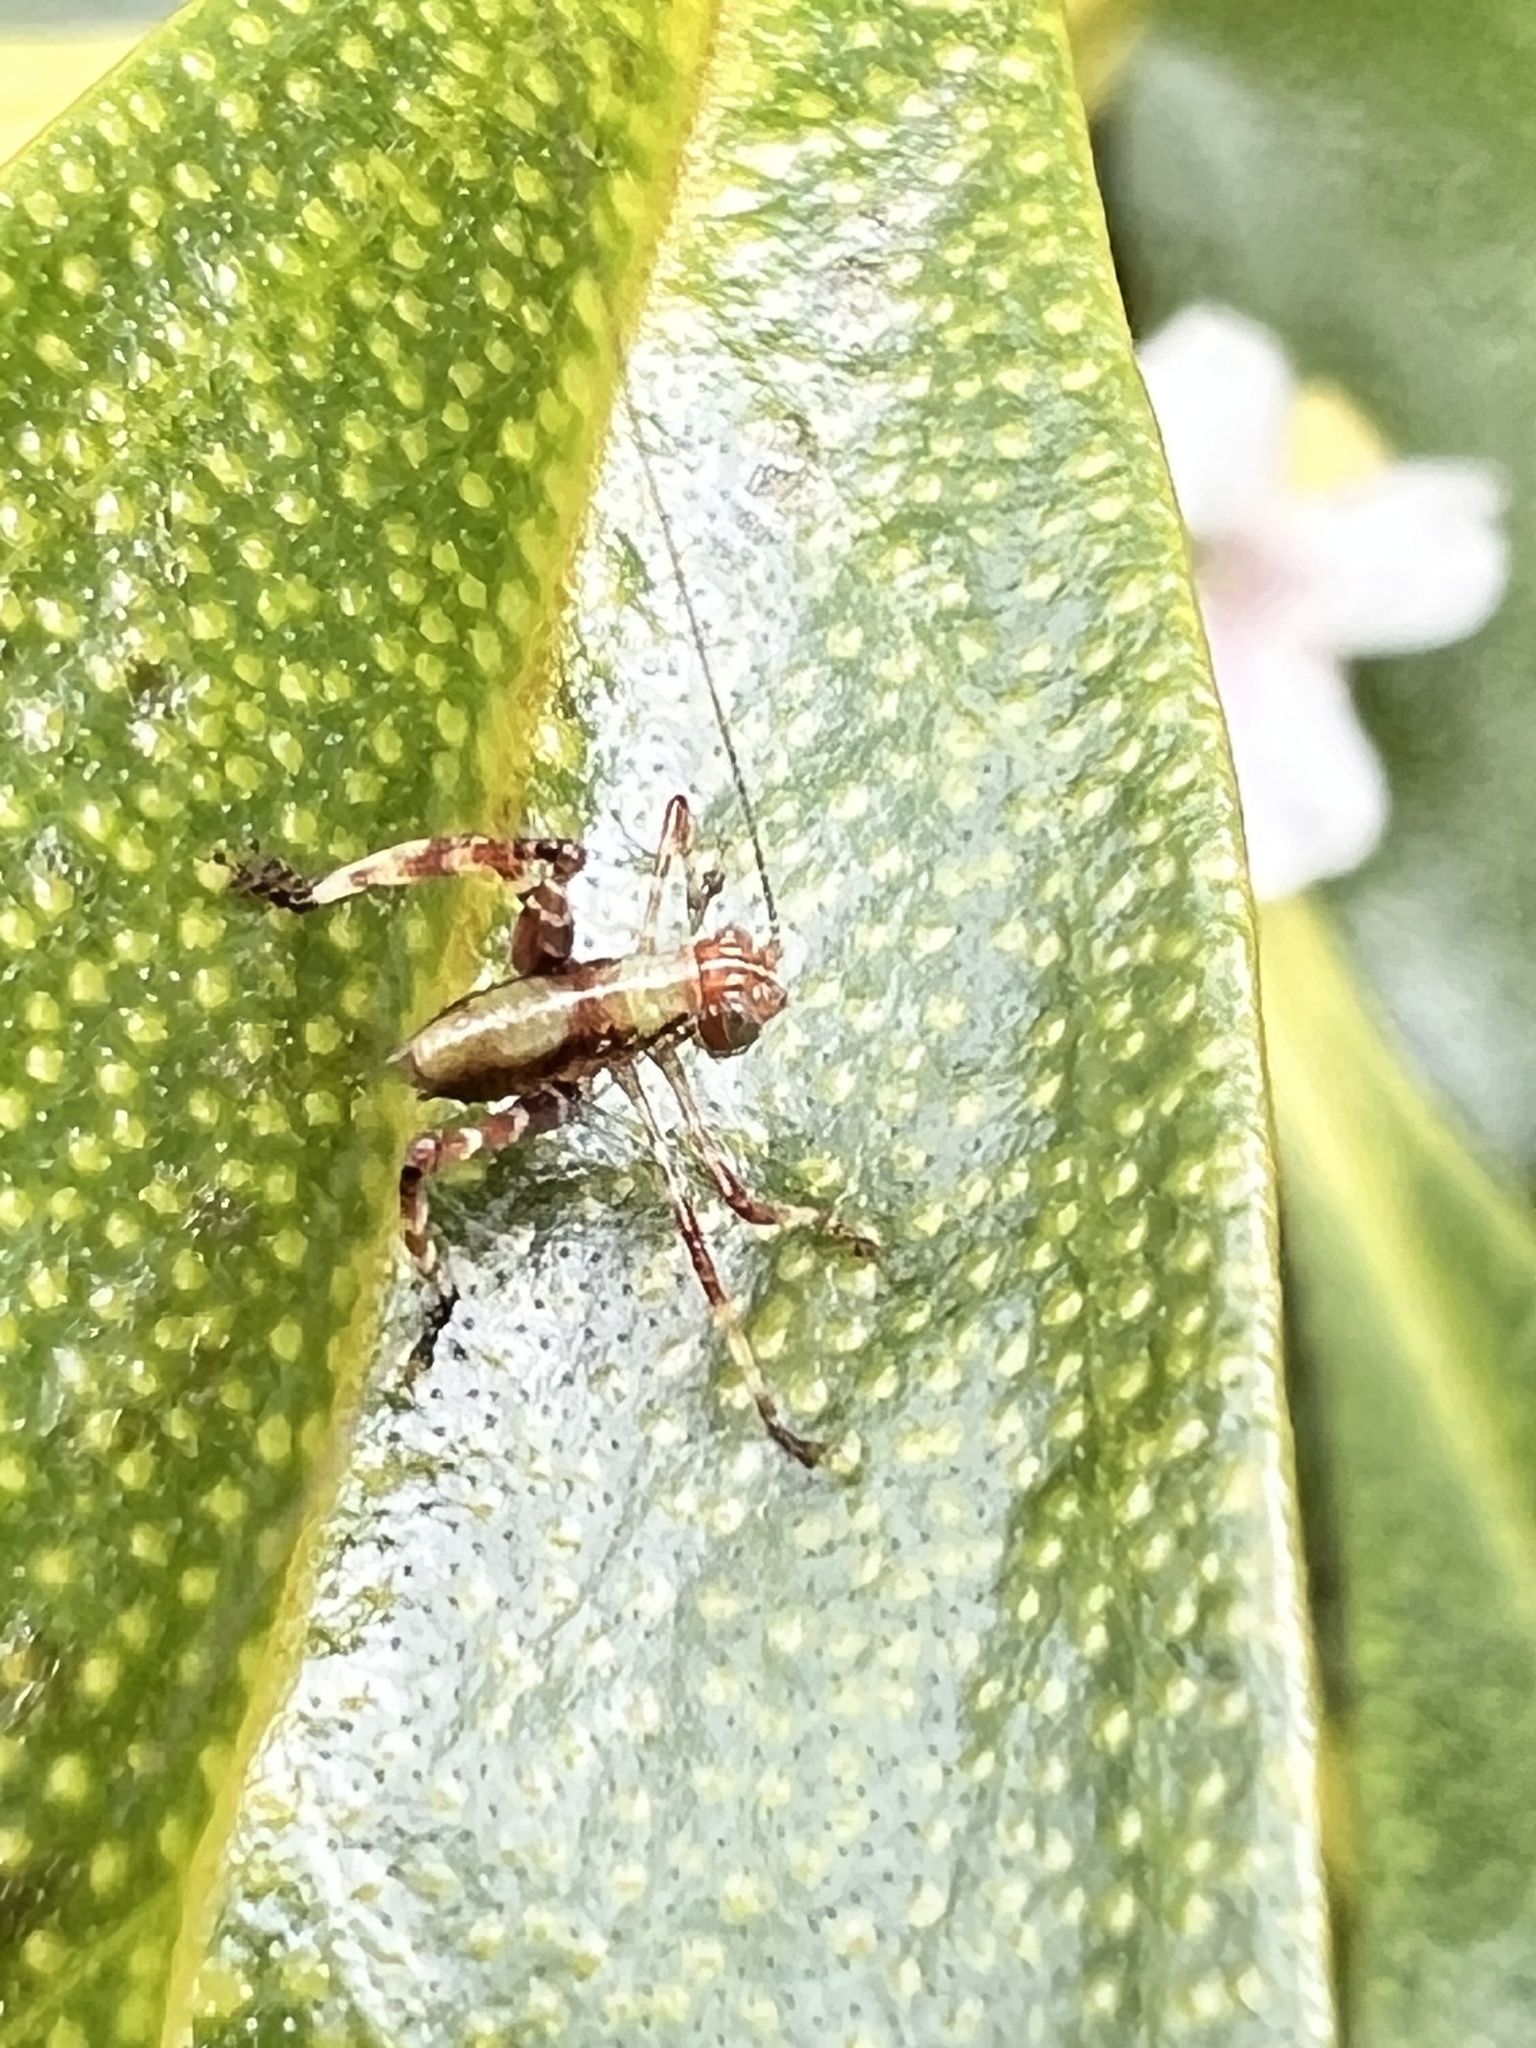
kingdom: Animalia
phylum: Arthropoda
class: Insecta
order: Orthoptera
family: Tettigoniidae
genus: Caedicia
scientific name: Caedicia simplex
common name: Common garden katydid
